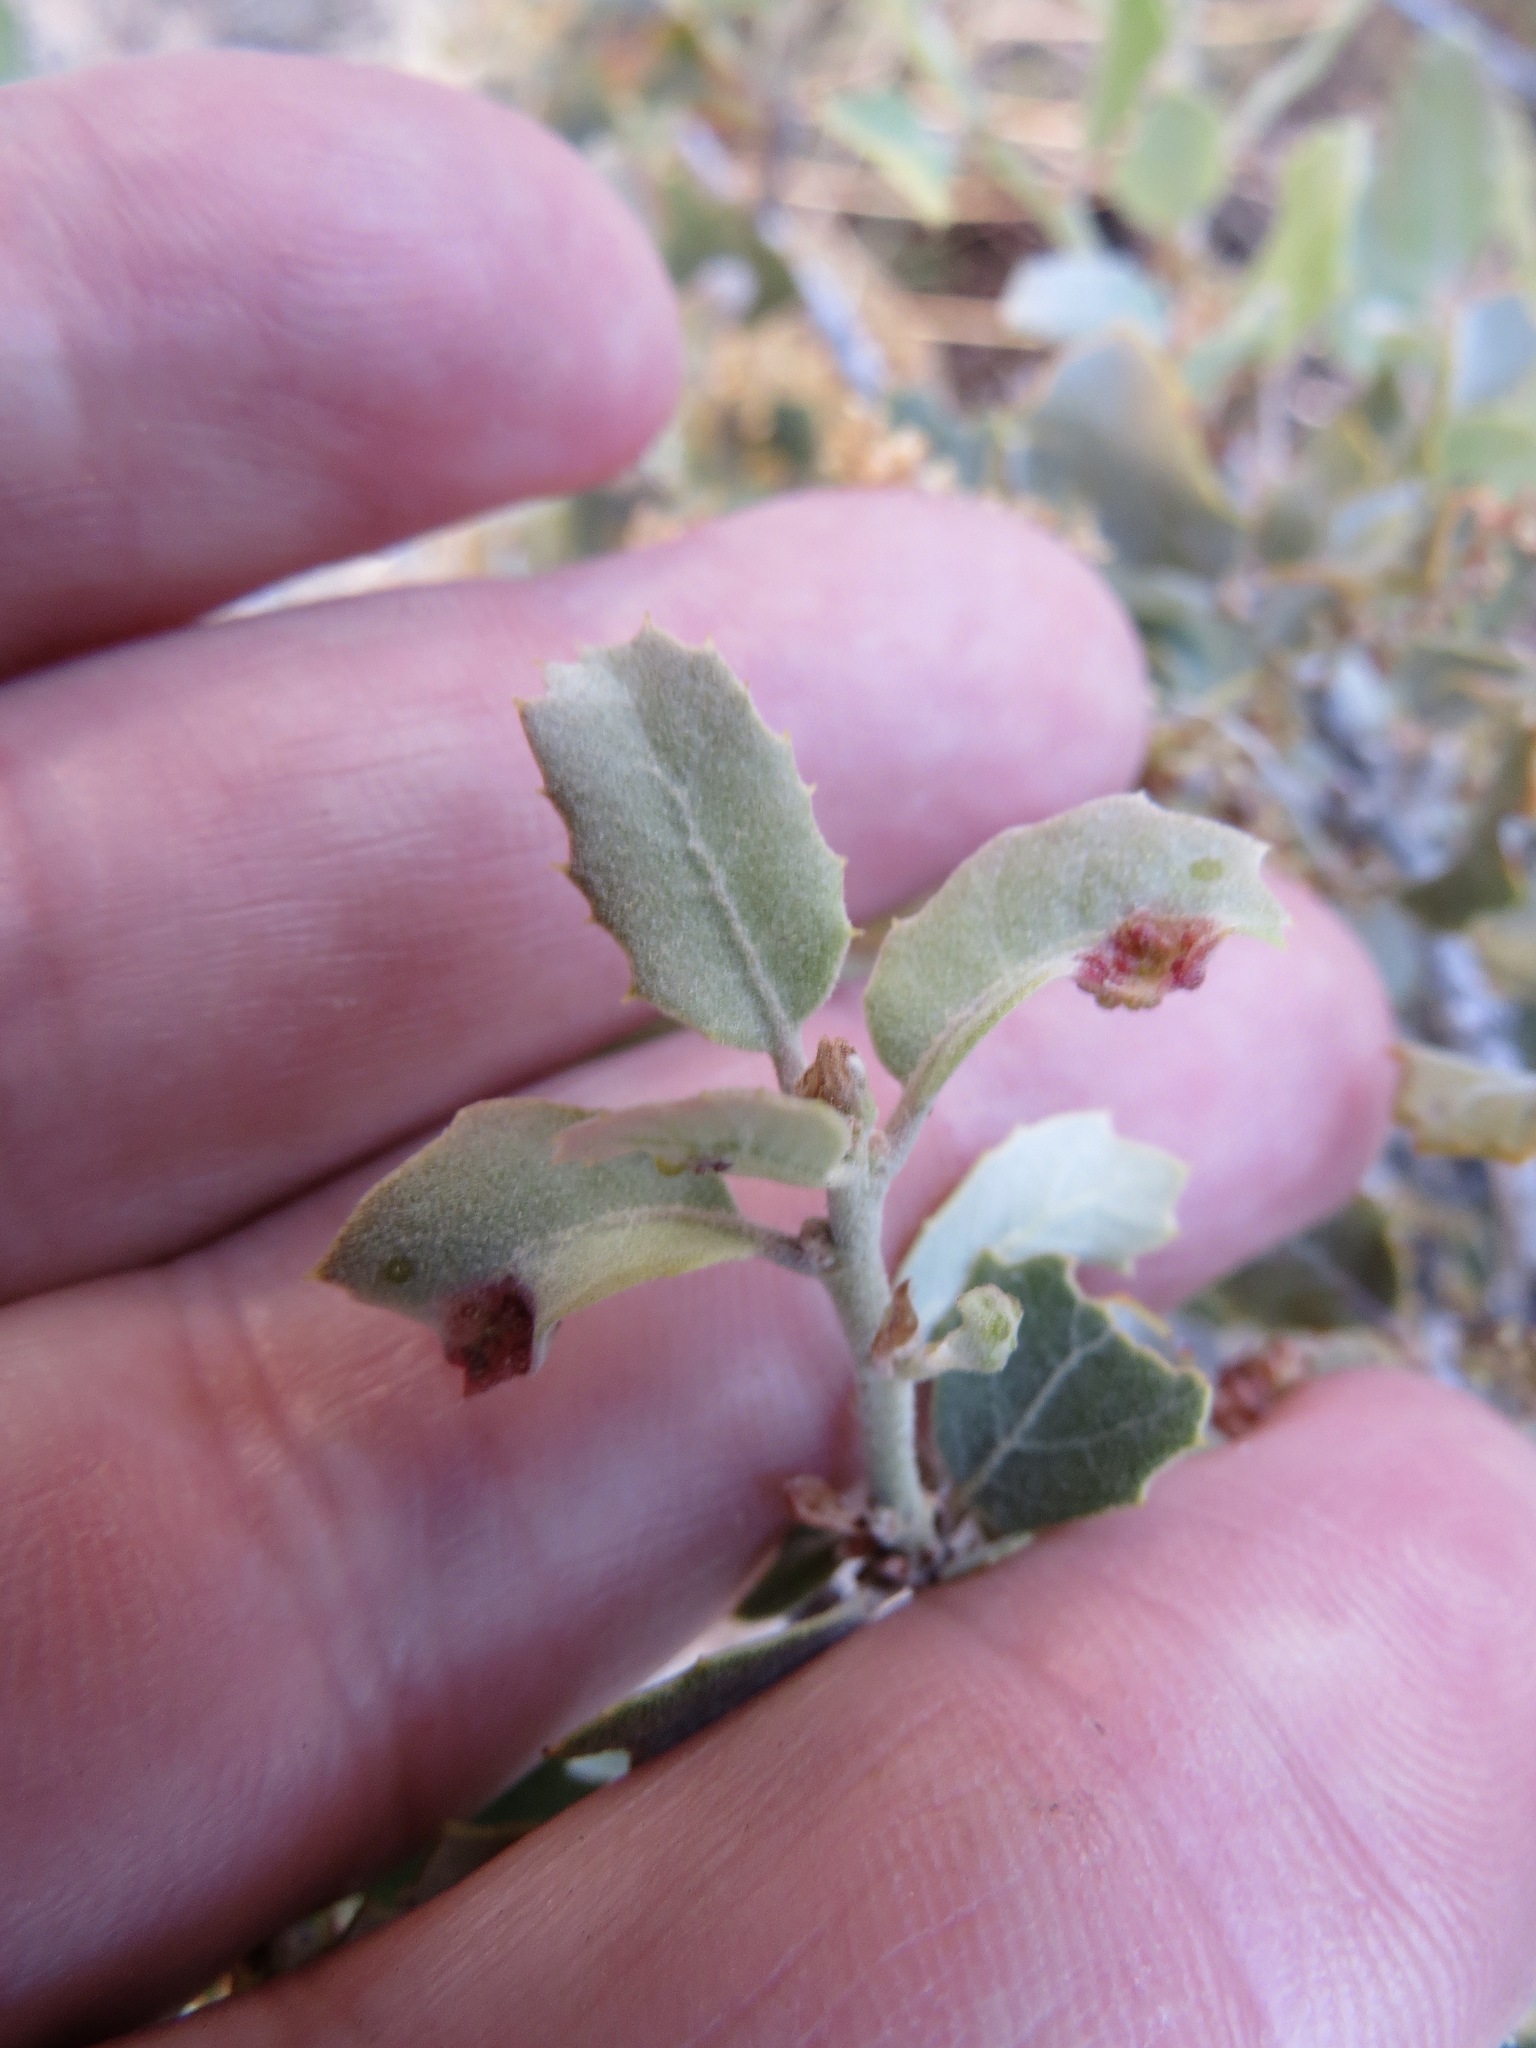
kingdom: Animalia
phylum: Arthropoda
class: Insecta
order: Hymenoptera
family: Cynipidae
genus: Neuroterus
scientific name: Neuroterus saltarius
